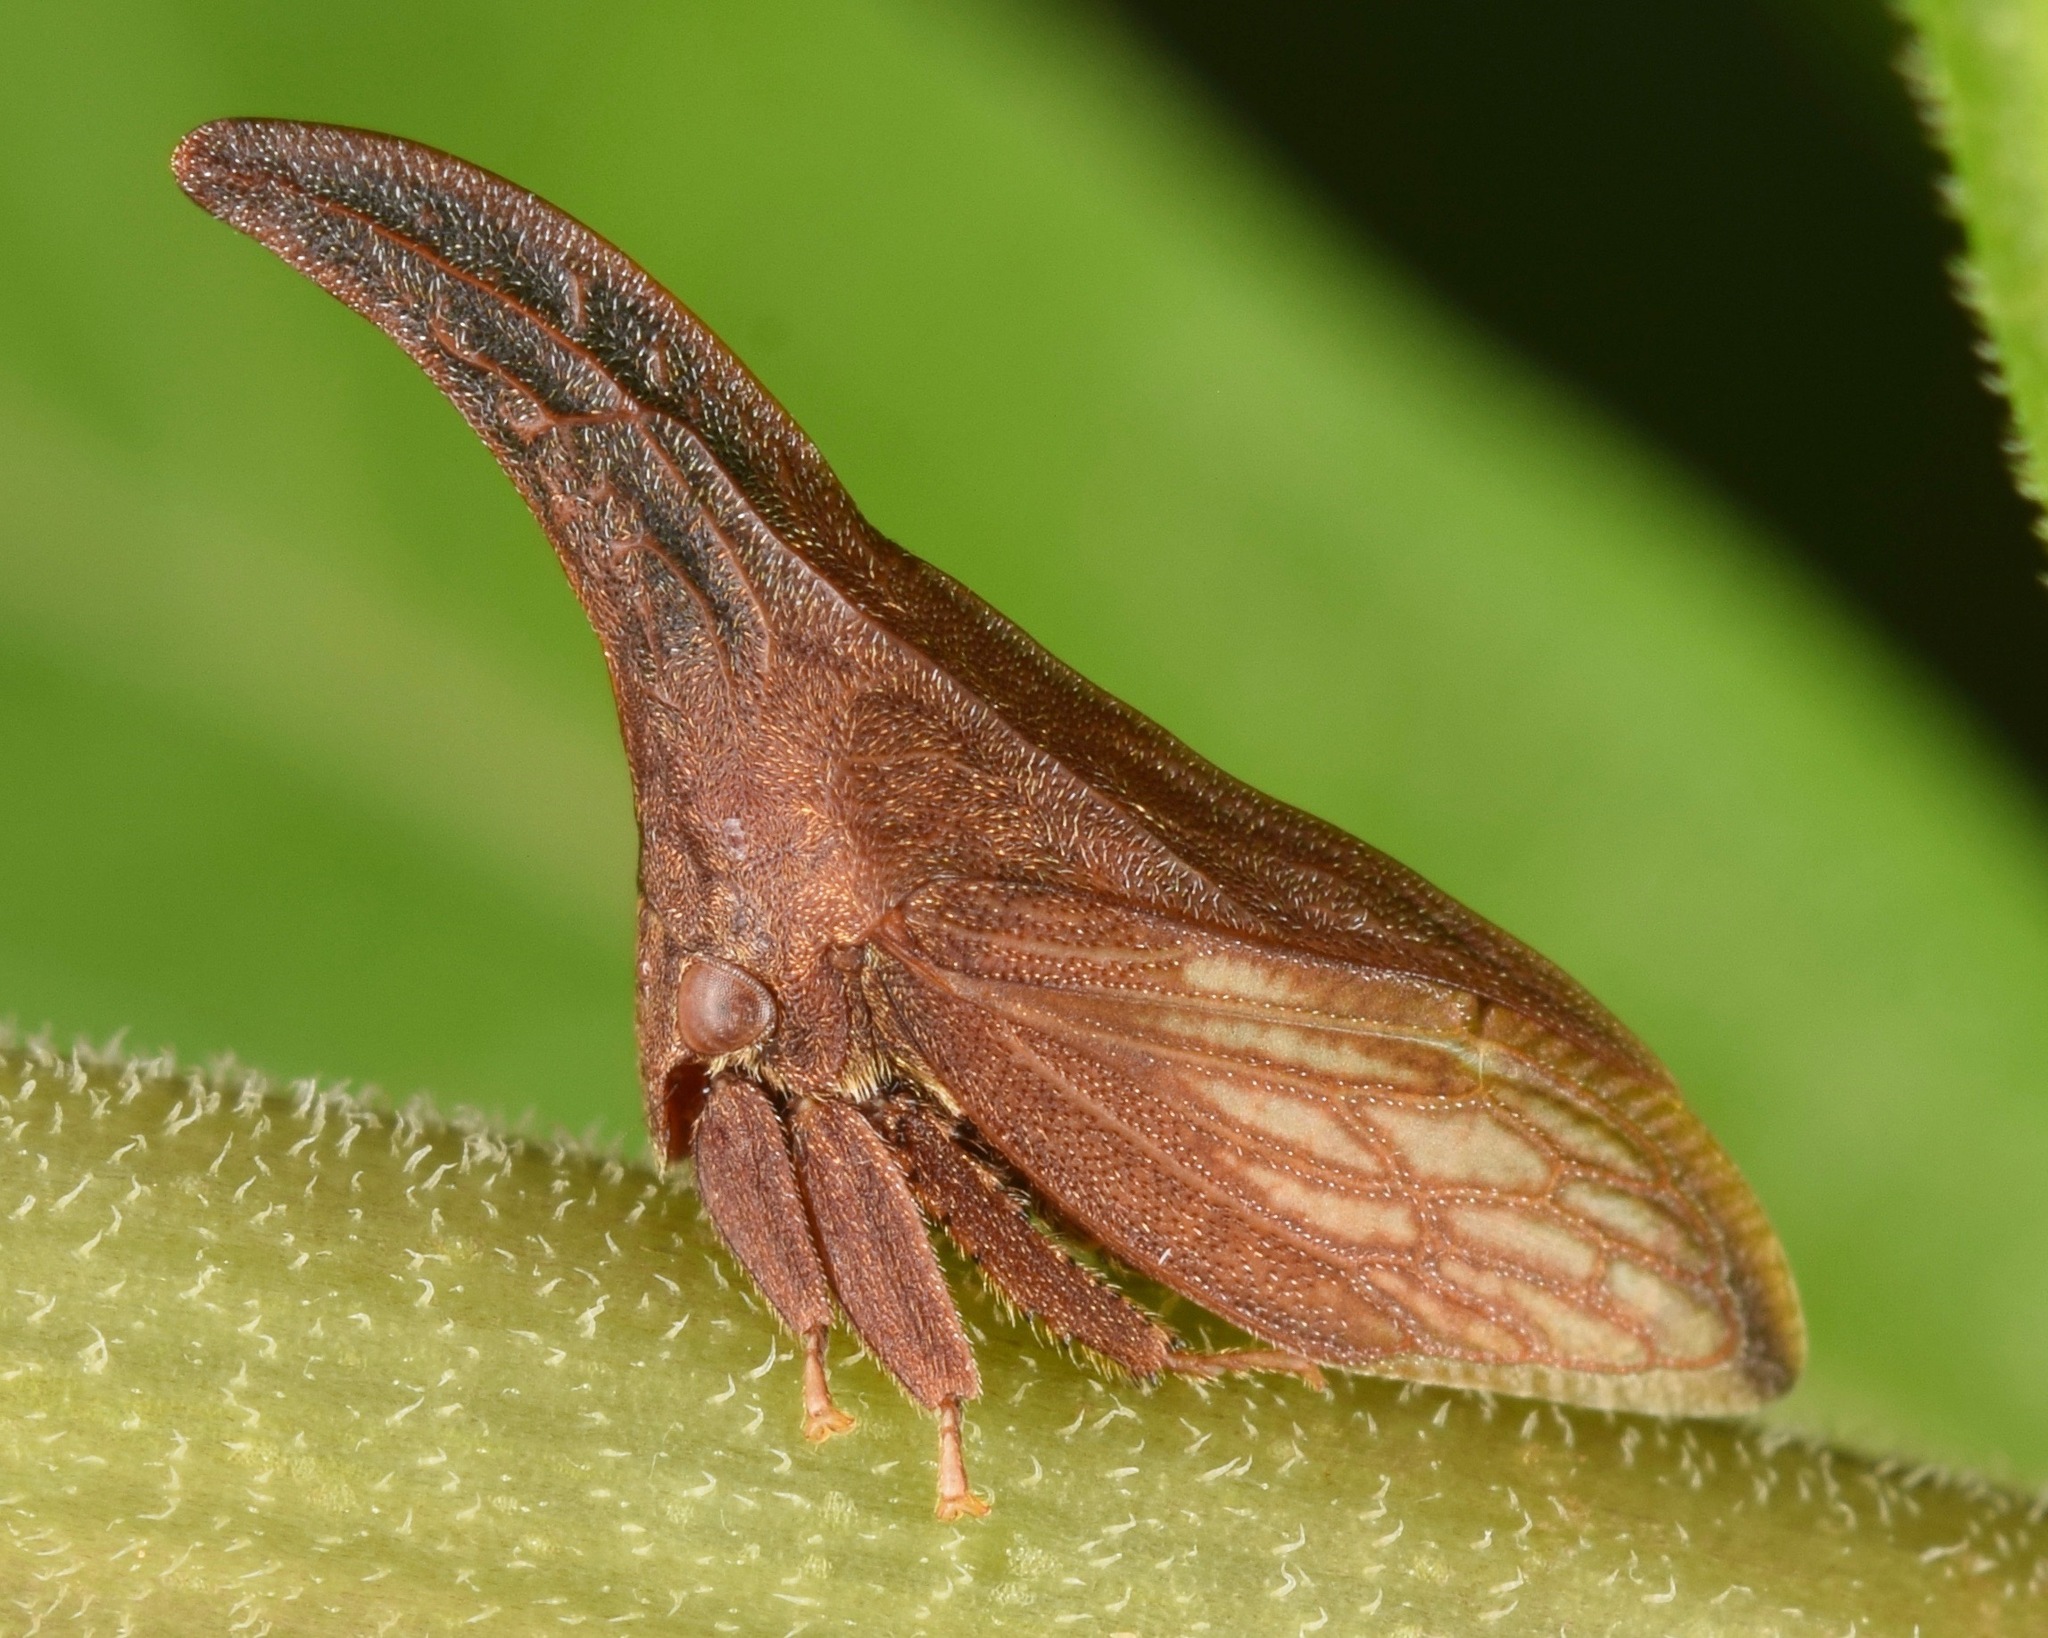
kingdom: Animalia
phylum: Arthropoda
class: Insecta
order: Hemiptera
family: Membracidae
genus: Enchenopa
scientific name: Enchenopa latipes
